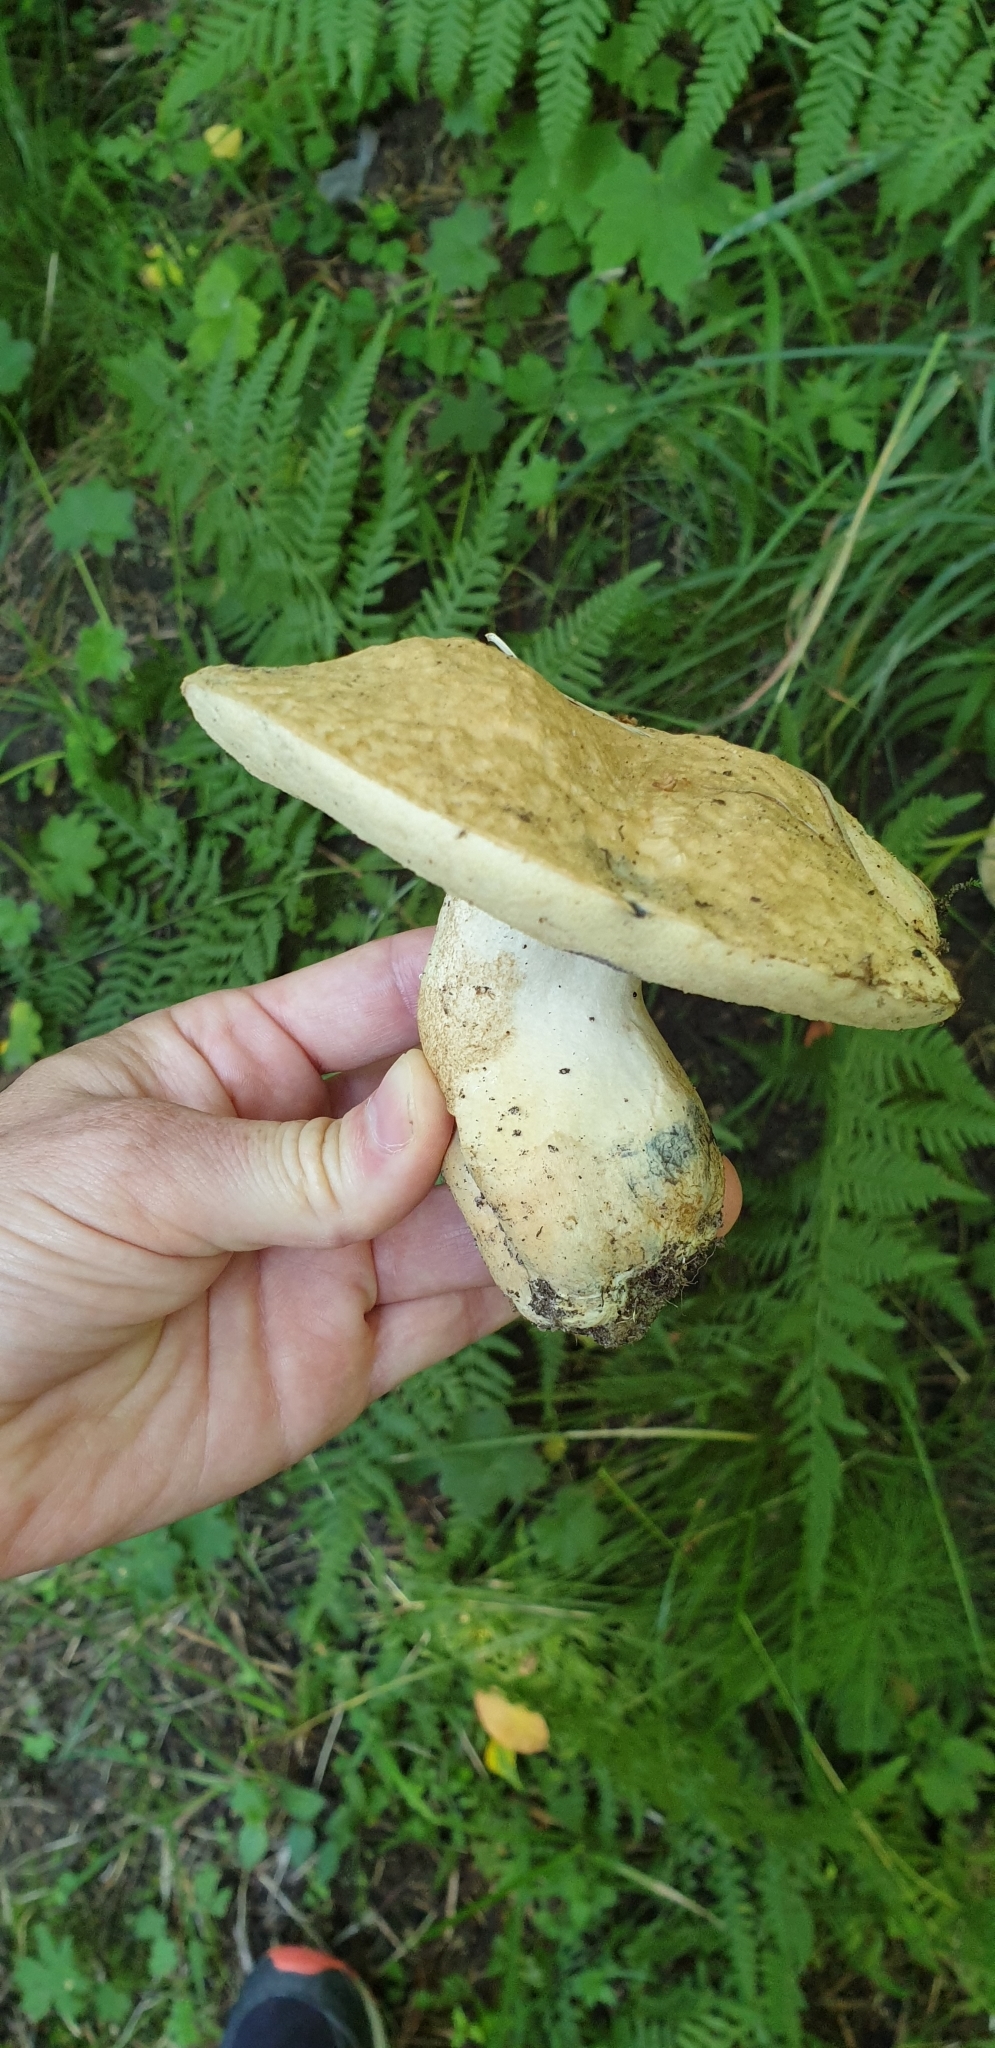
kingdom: Fungi
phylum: Basidiomycota
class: Agaricomycetes
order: Boletales
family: Gyroporaceae
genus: Gyroporus
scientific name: Gyroporus cyanescens
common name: Cornflower bolete
